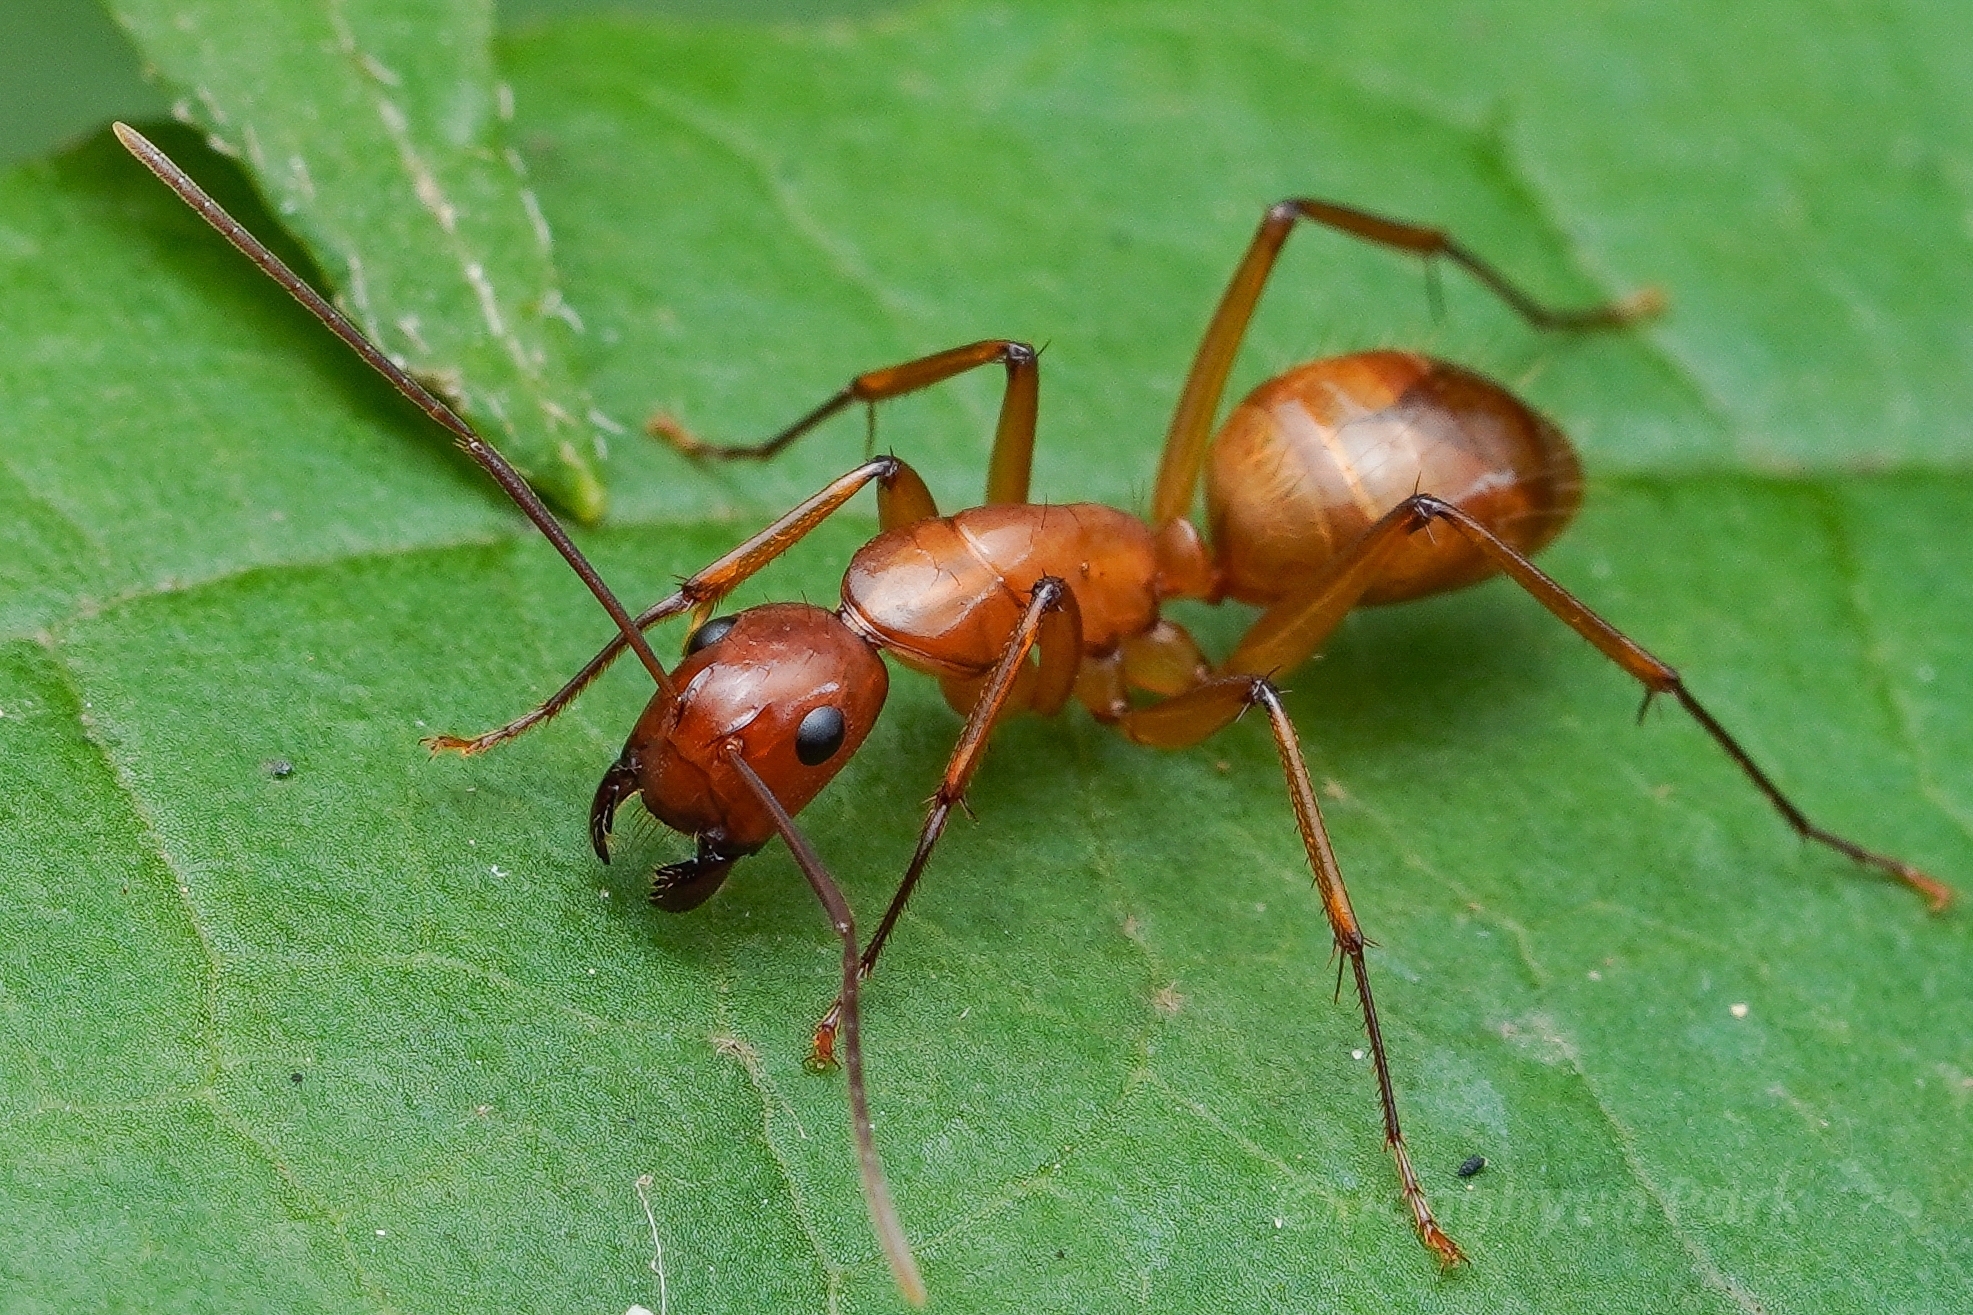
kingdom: Animalia
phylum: Arthropoda
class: Insecta
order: Hymenoptera
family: Formicidae
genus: Camponotus
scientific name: Camponotus castaneus
